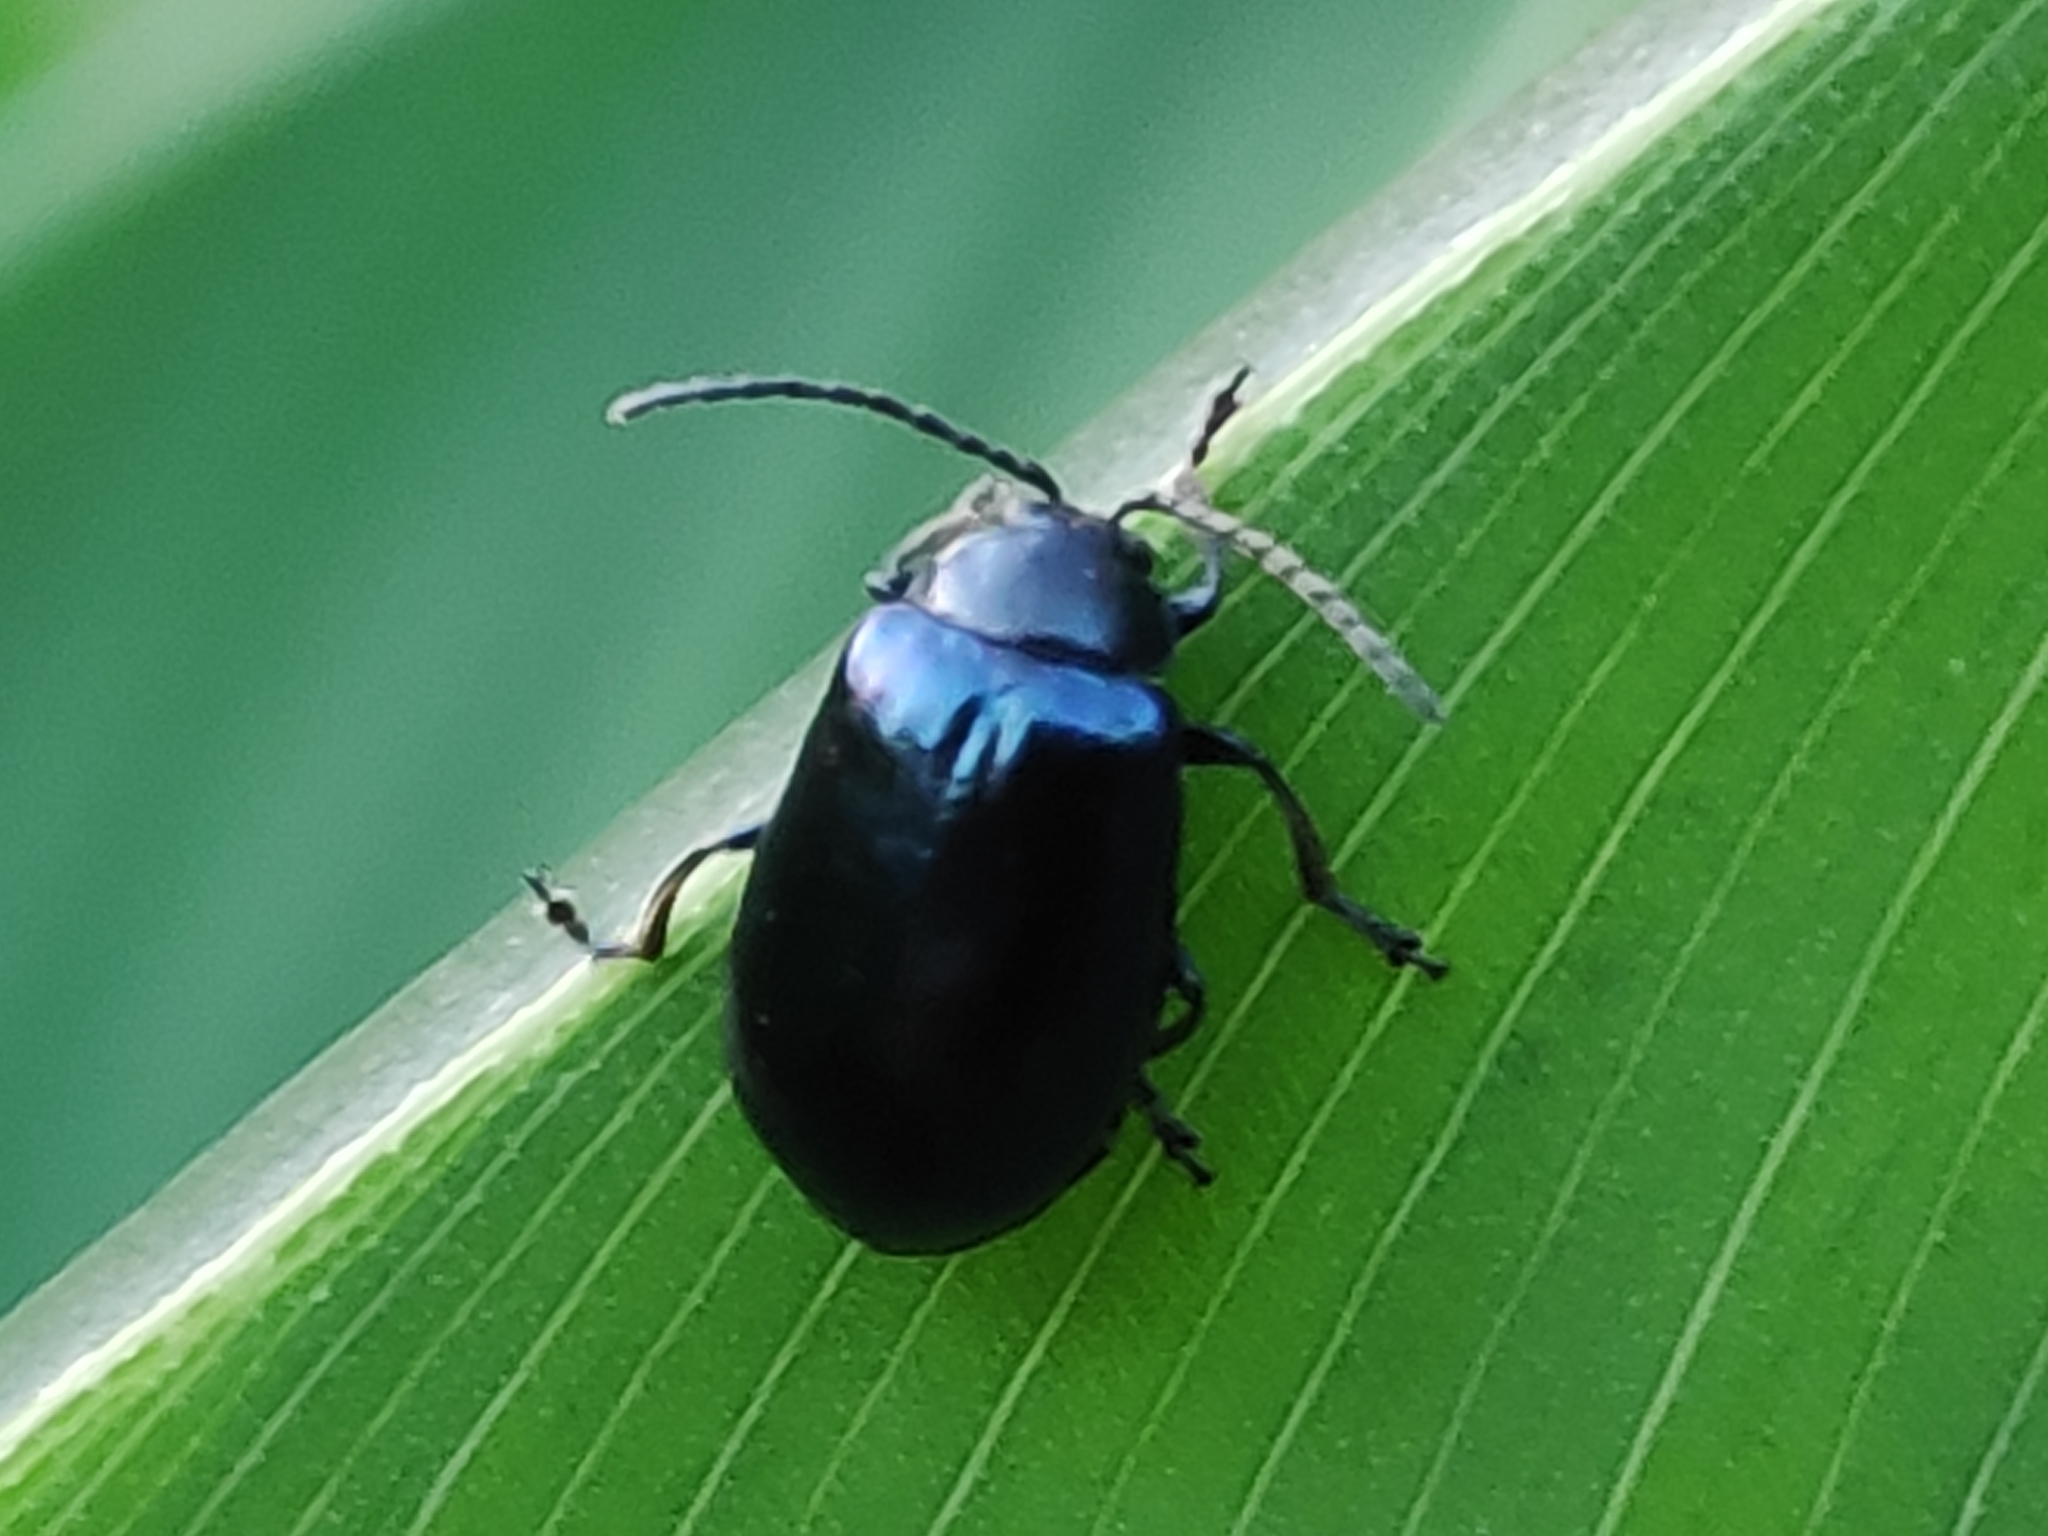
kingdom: Animalia
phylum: Arthropoda
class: Insecta
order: Coleoptera
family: Chrysomelidae
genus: Agelastica
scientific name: Agelastica alni
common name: Alder leaf beetle
